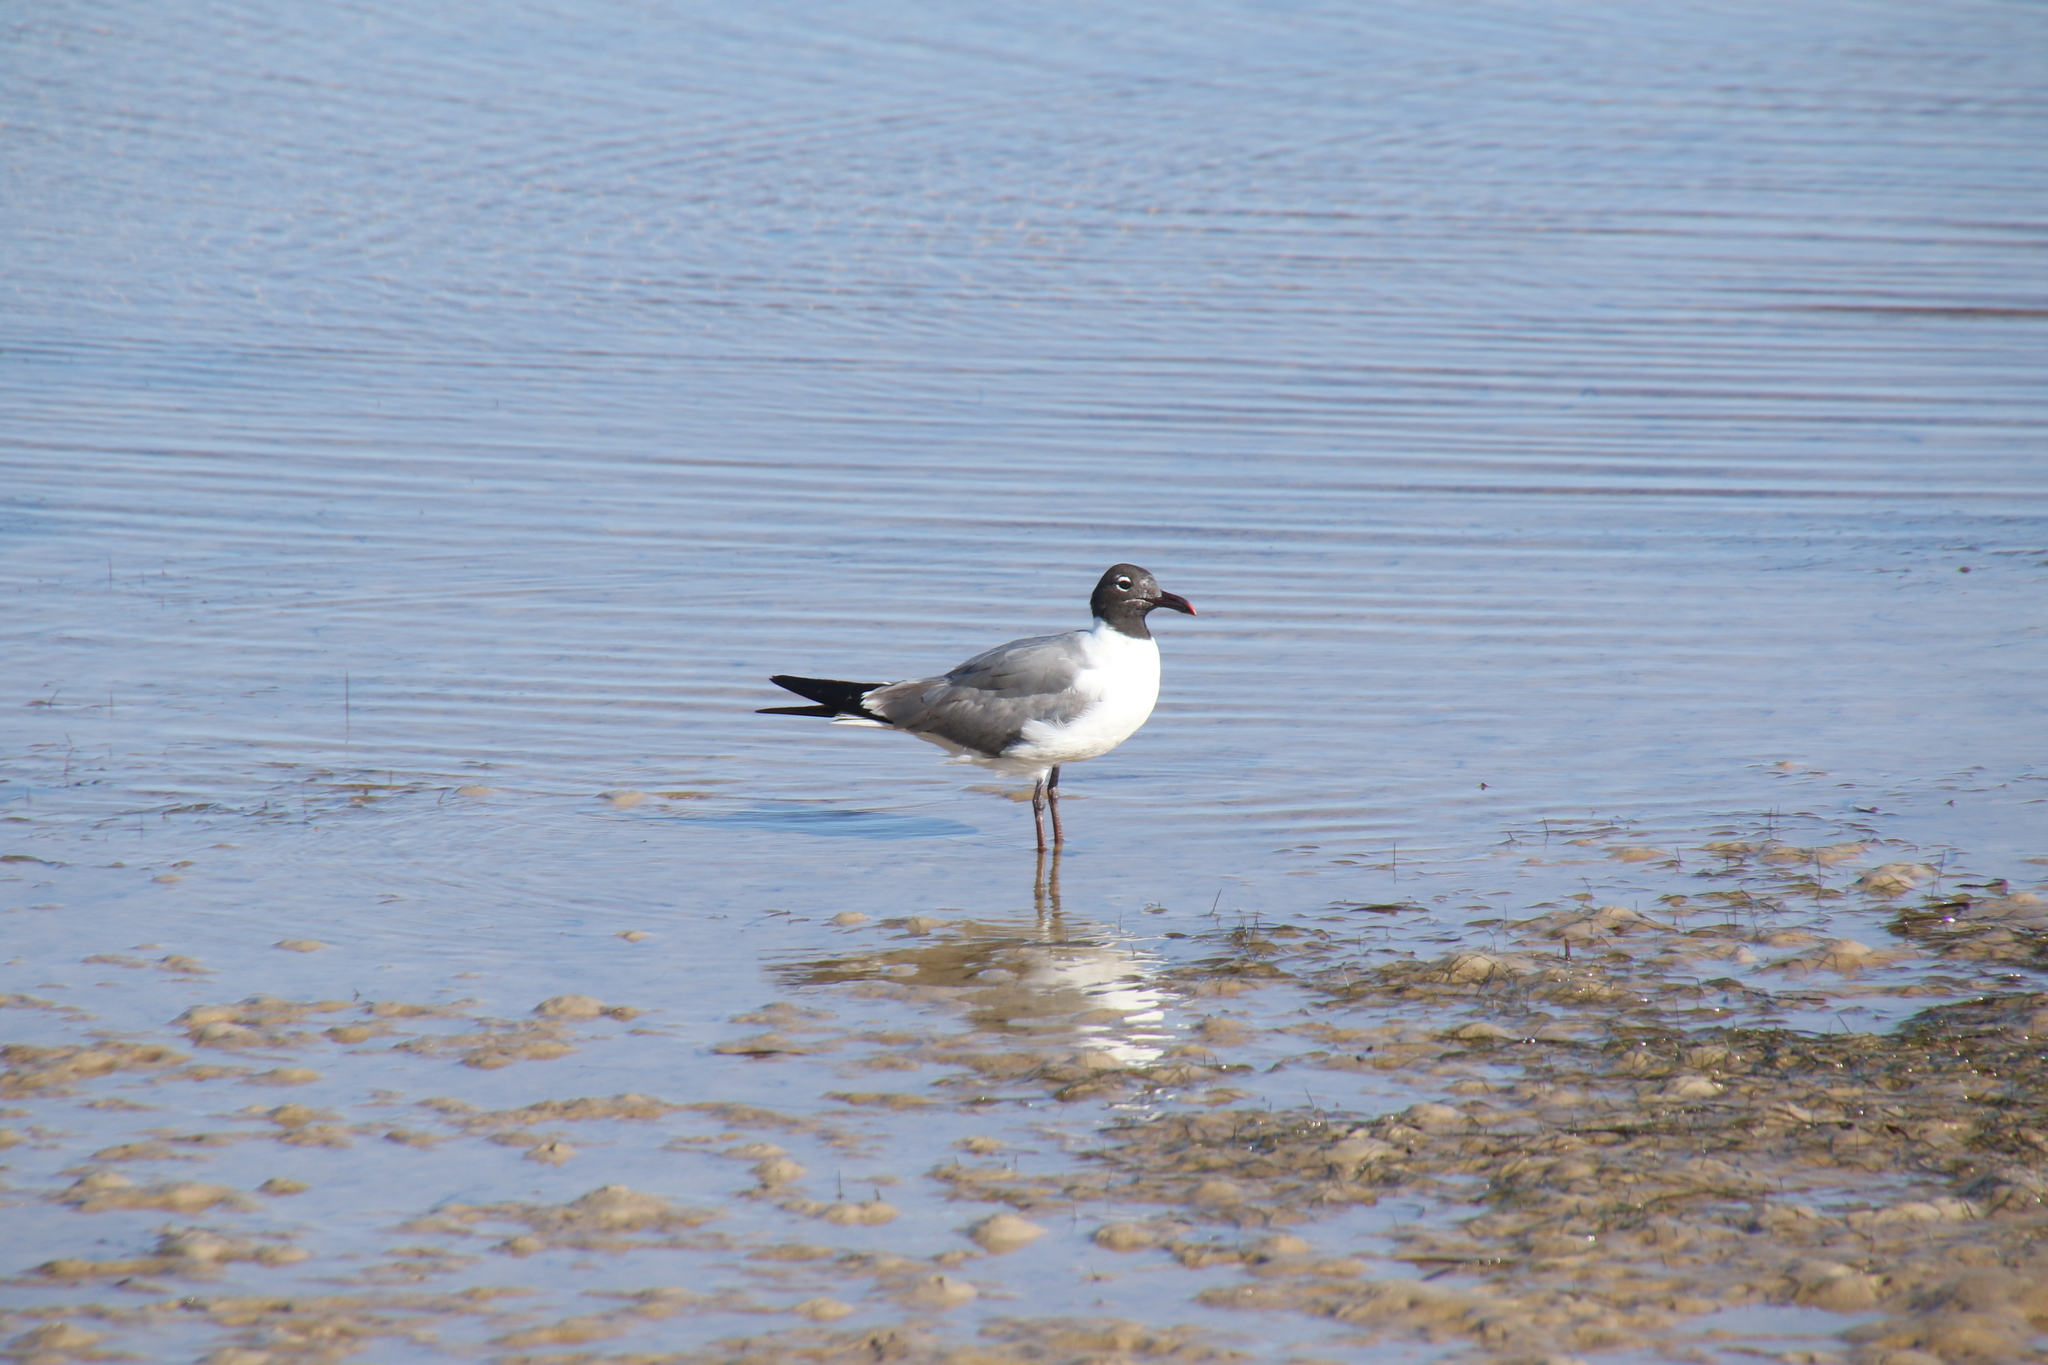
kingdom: Animalia
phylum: Chordata
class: Aves
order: Charadriiformes
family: Laridae
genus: Leucophaeus
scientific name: Leucophaeus atricilla
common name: Laughing gull
